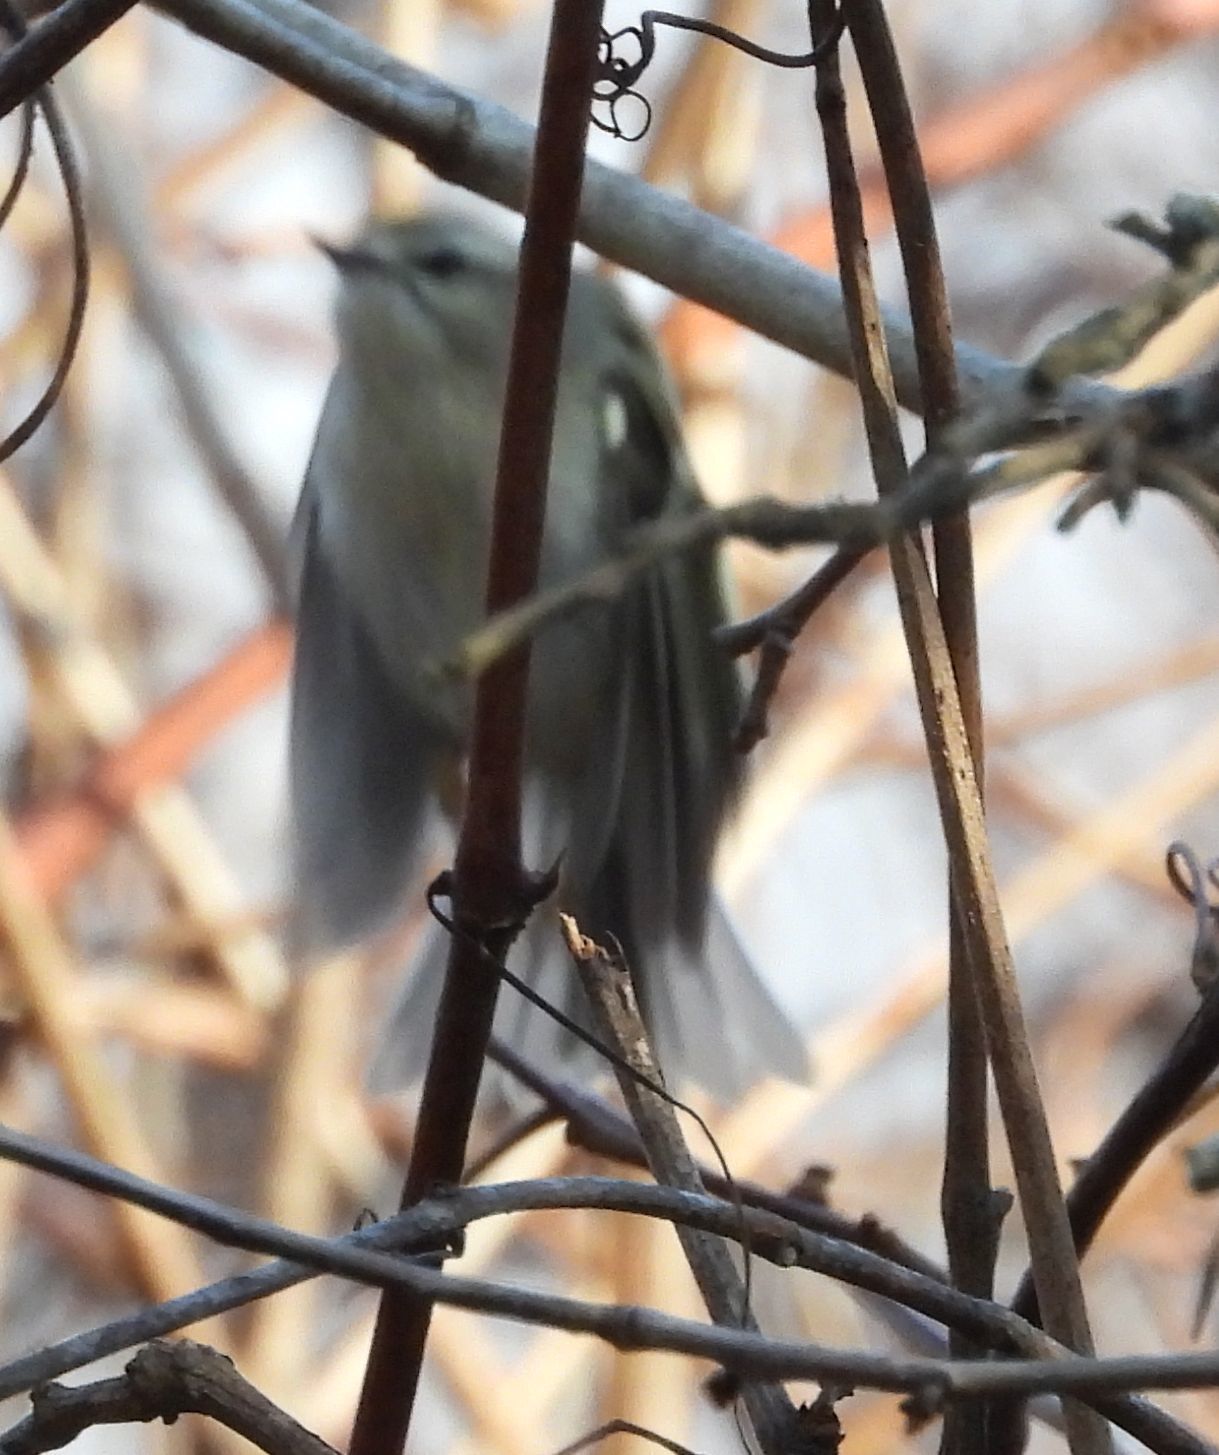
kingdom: Animalia
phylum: Chordata
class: Aves
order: Passeriformes
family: Regulidae
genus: Regulus
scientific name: Regulus satrapa
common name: Golden-crowned kinglet
